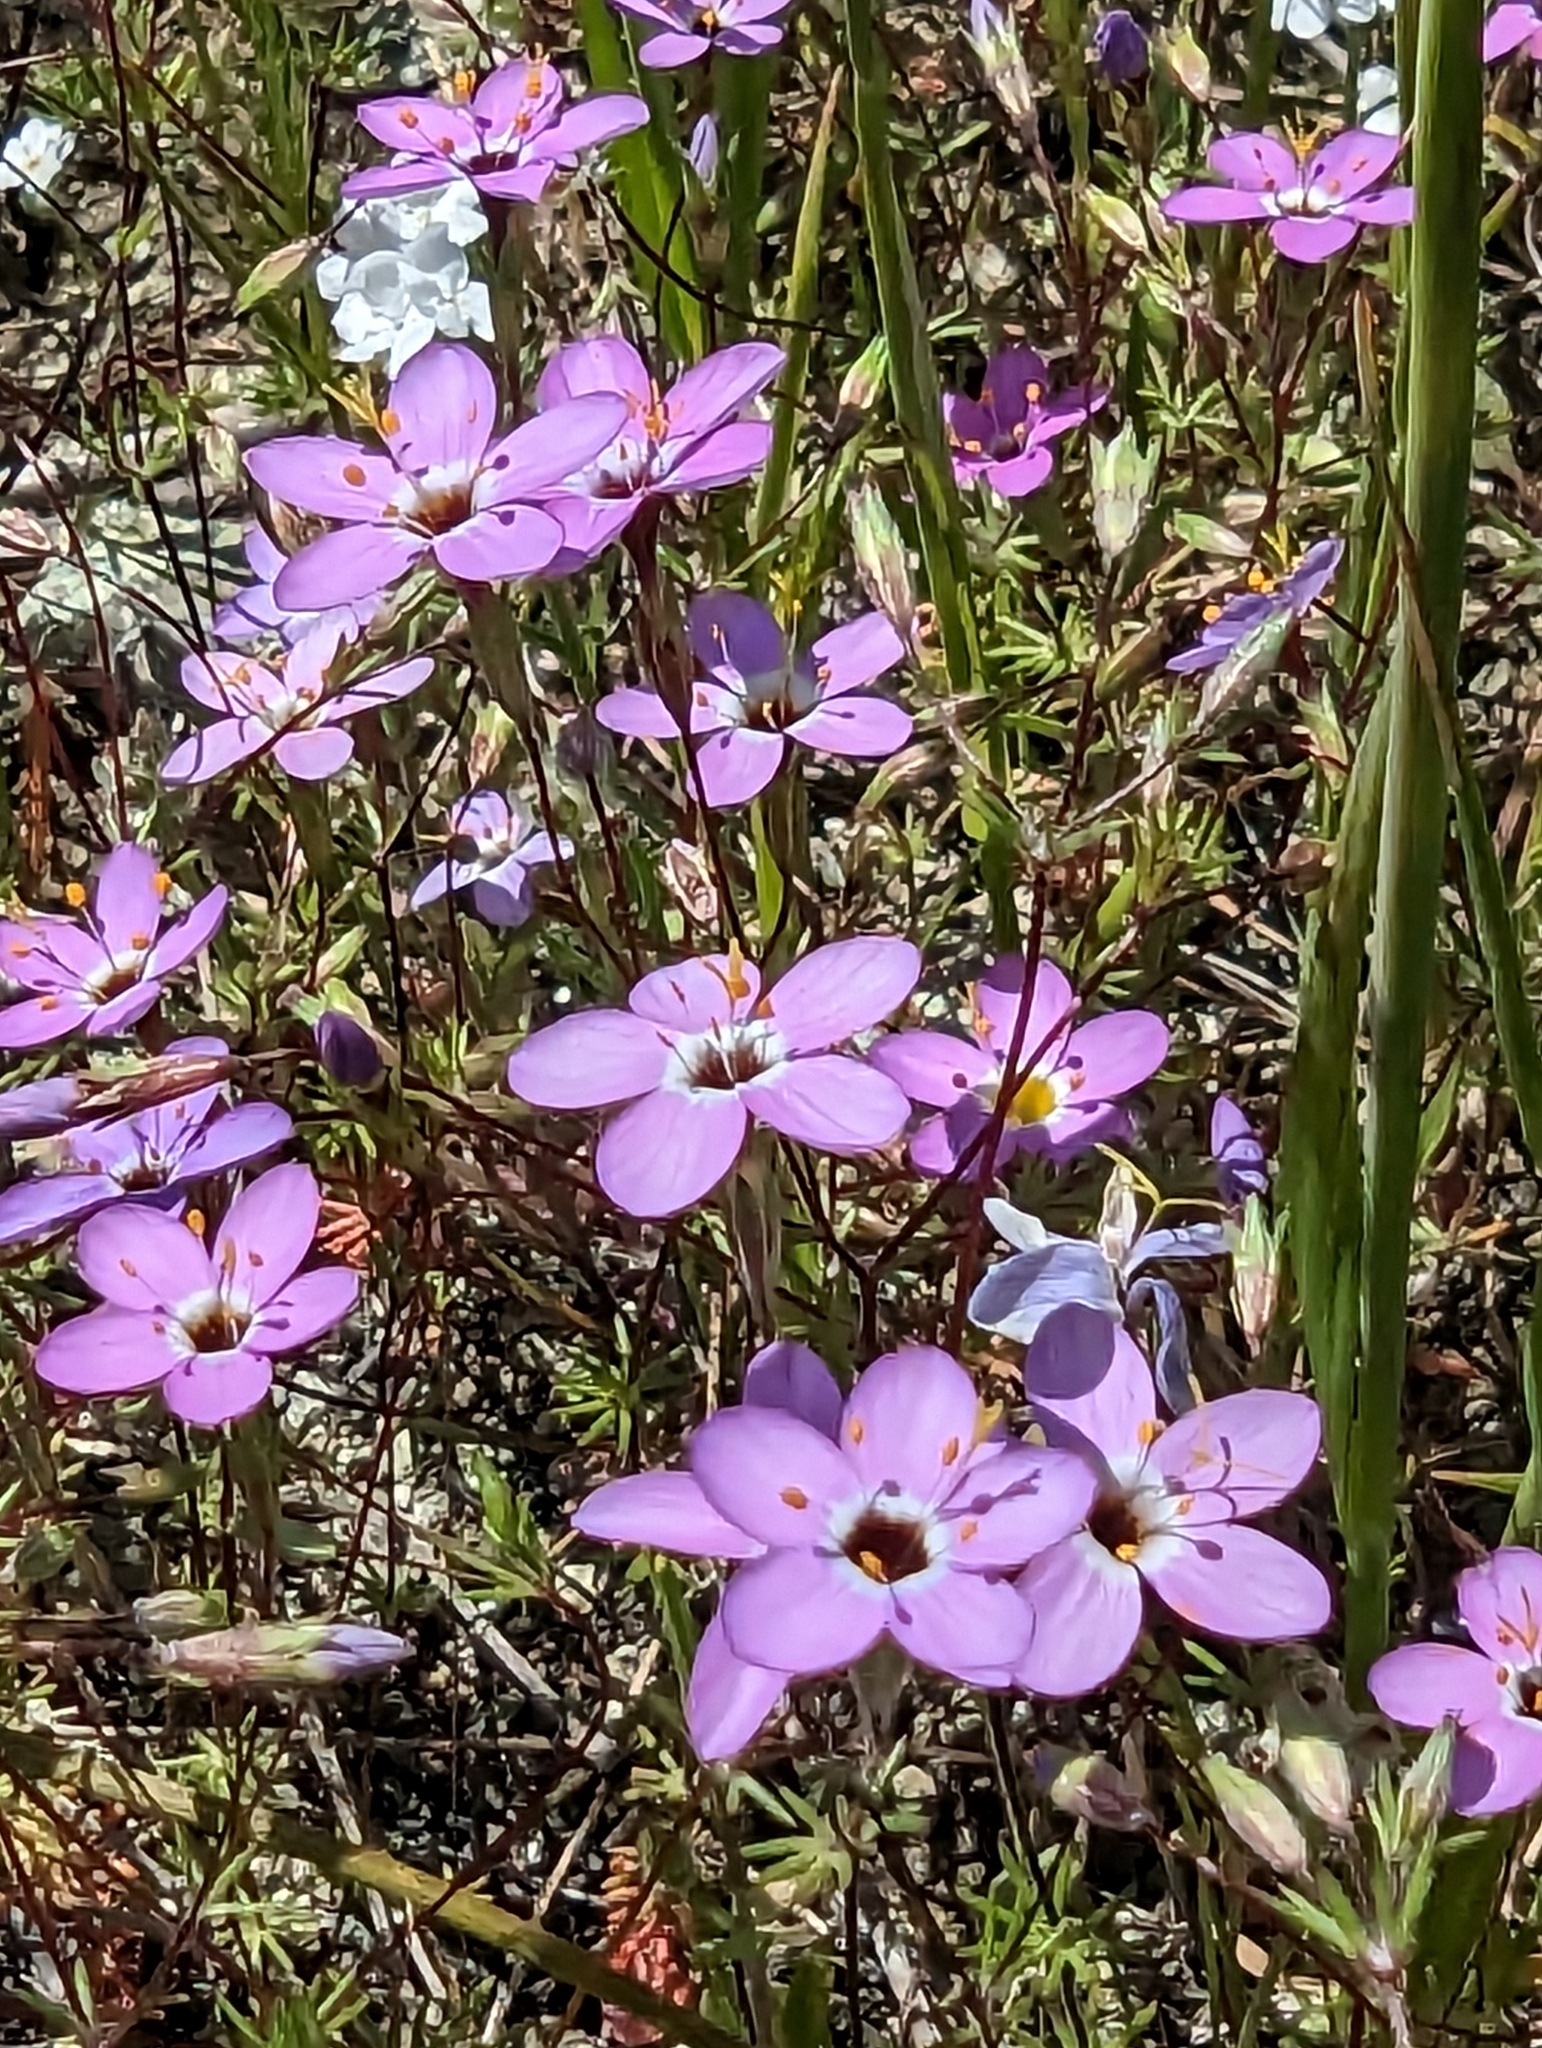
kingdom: Plantae
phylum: Tracheophyta
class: Magnoliopsida
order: Ericales
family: Polemoniaceae
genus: Leptosiphon
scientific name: Leptosiphon ambiguus
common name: Serpentine linanthus
